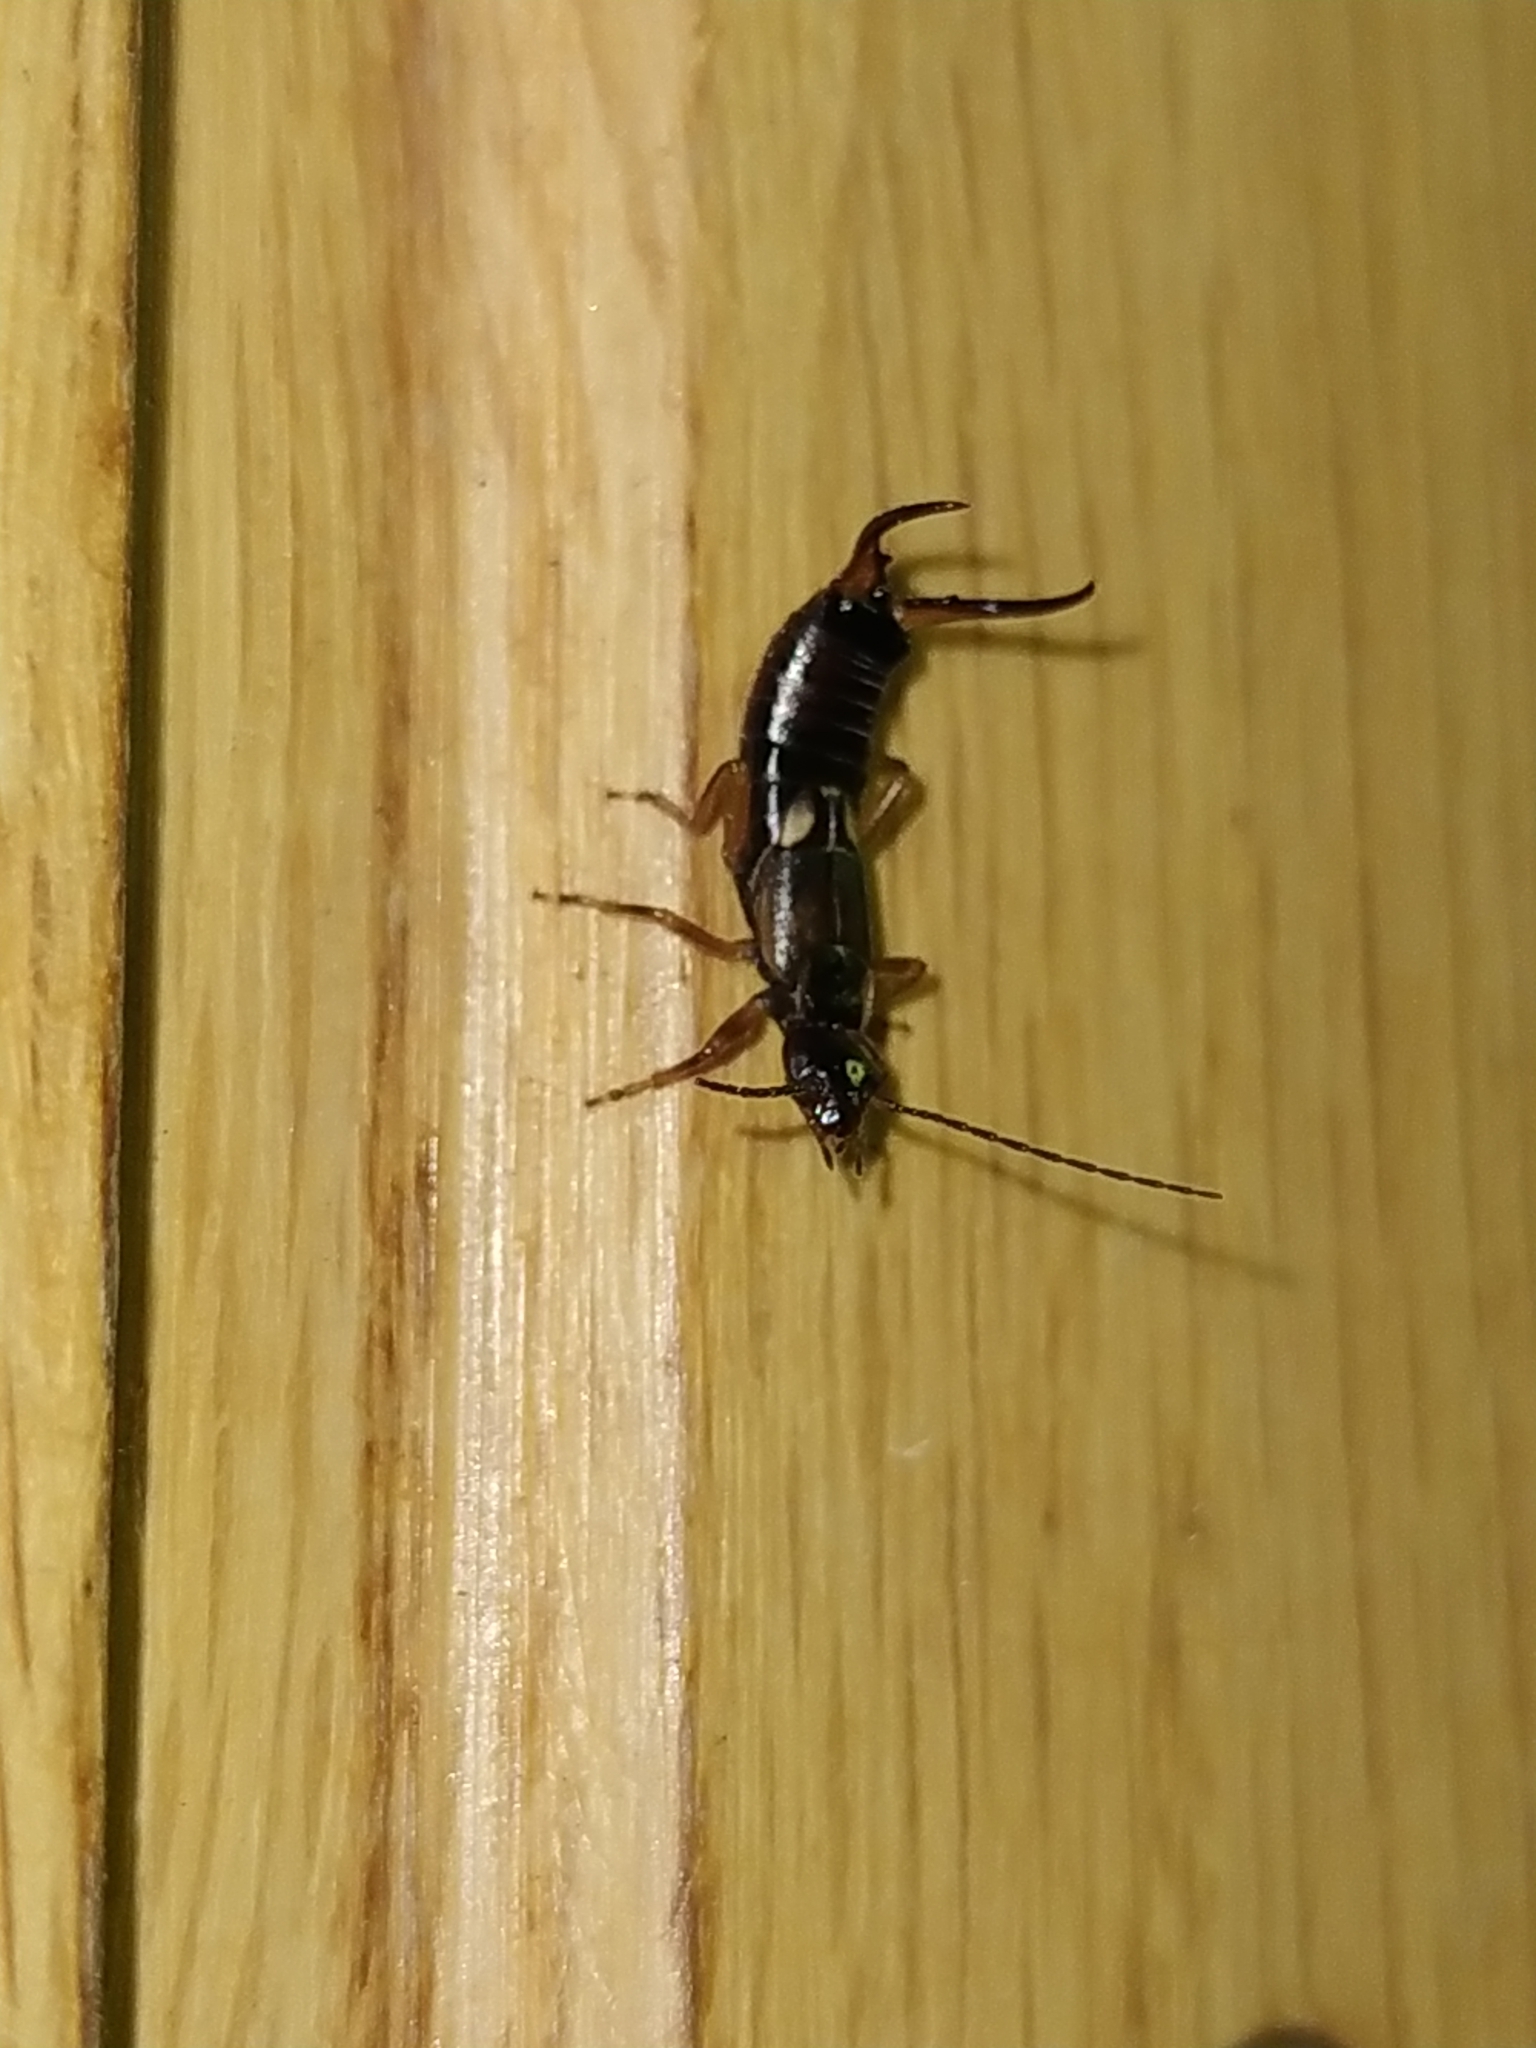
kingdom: Animalia
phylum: Arthropoda
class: Insecta
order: Dermaptera
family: Forficulidae
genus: Forficula
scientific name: Forficula
